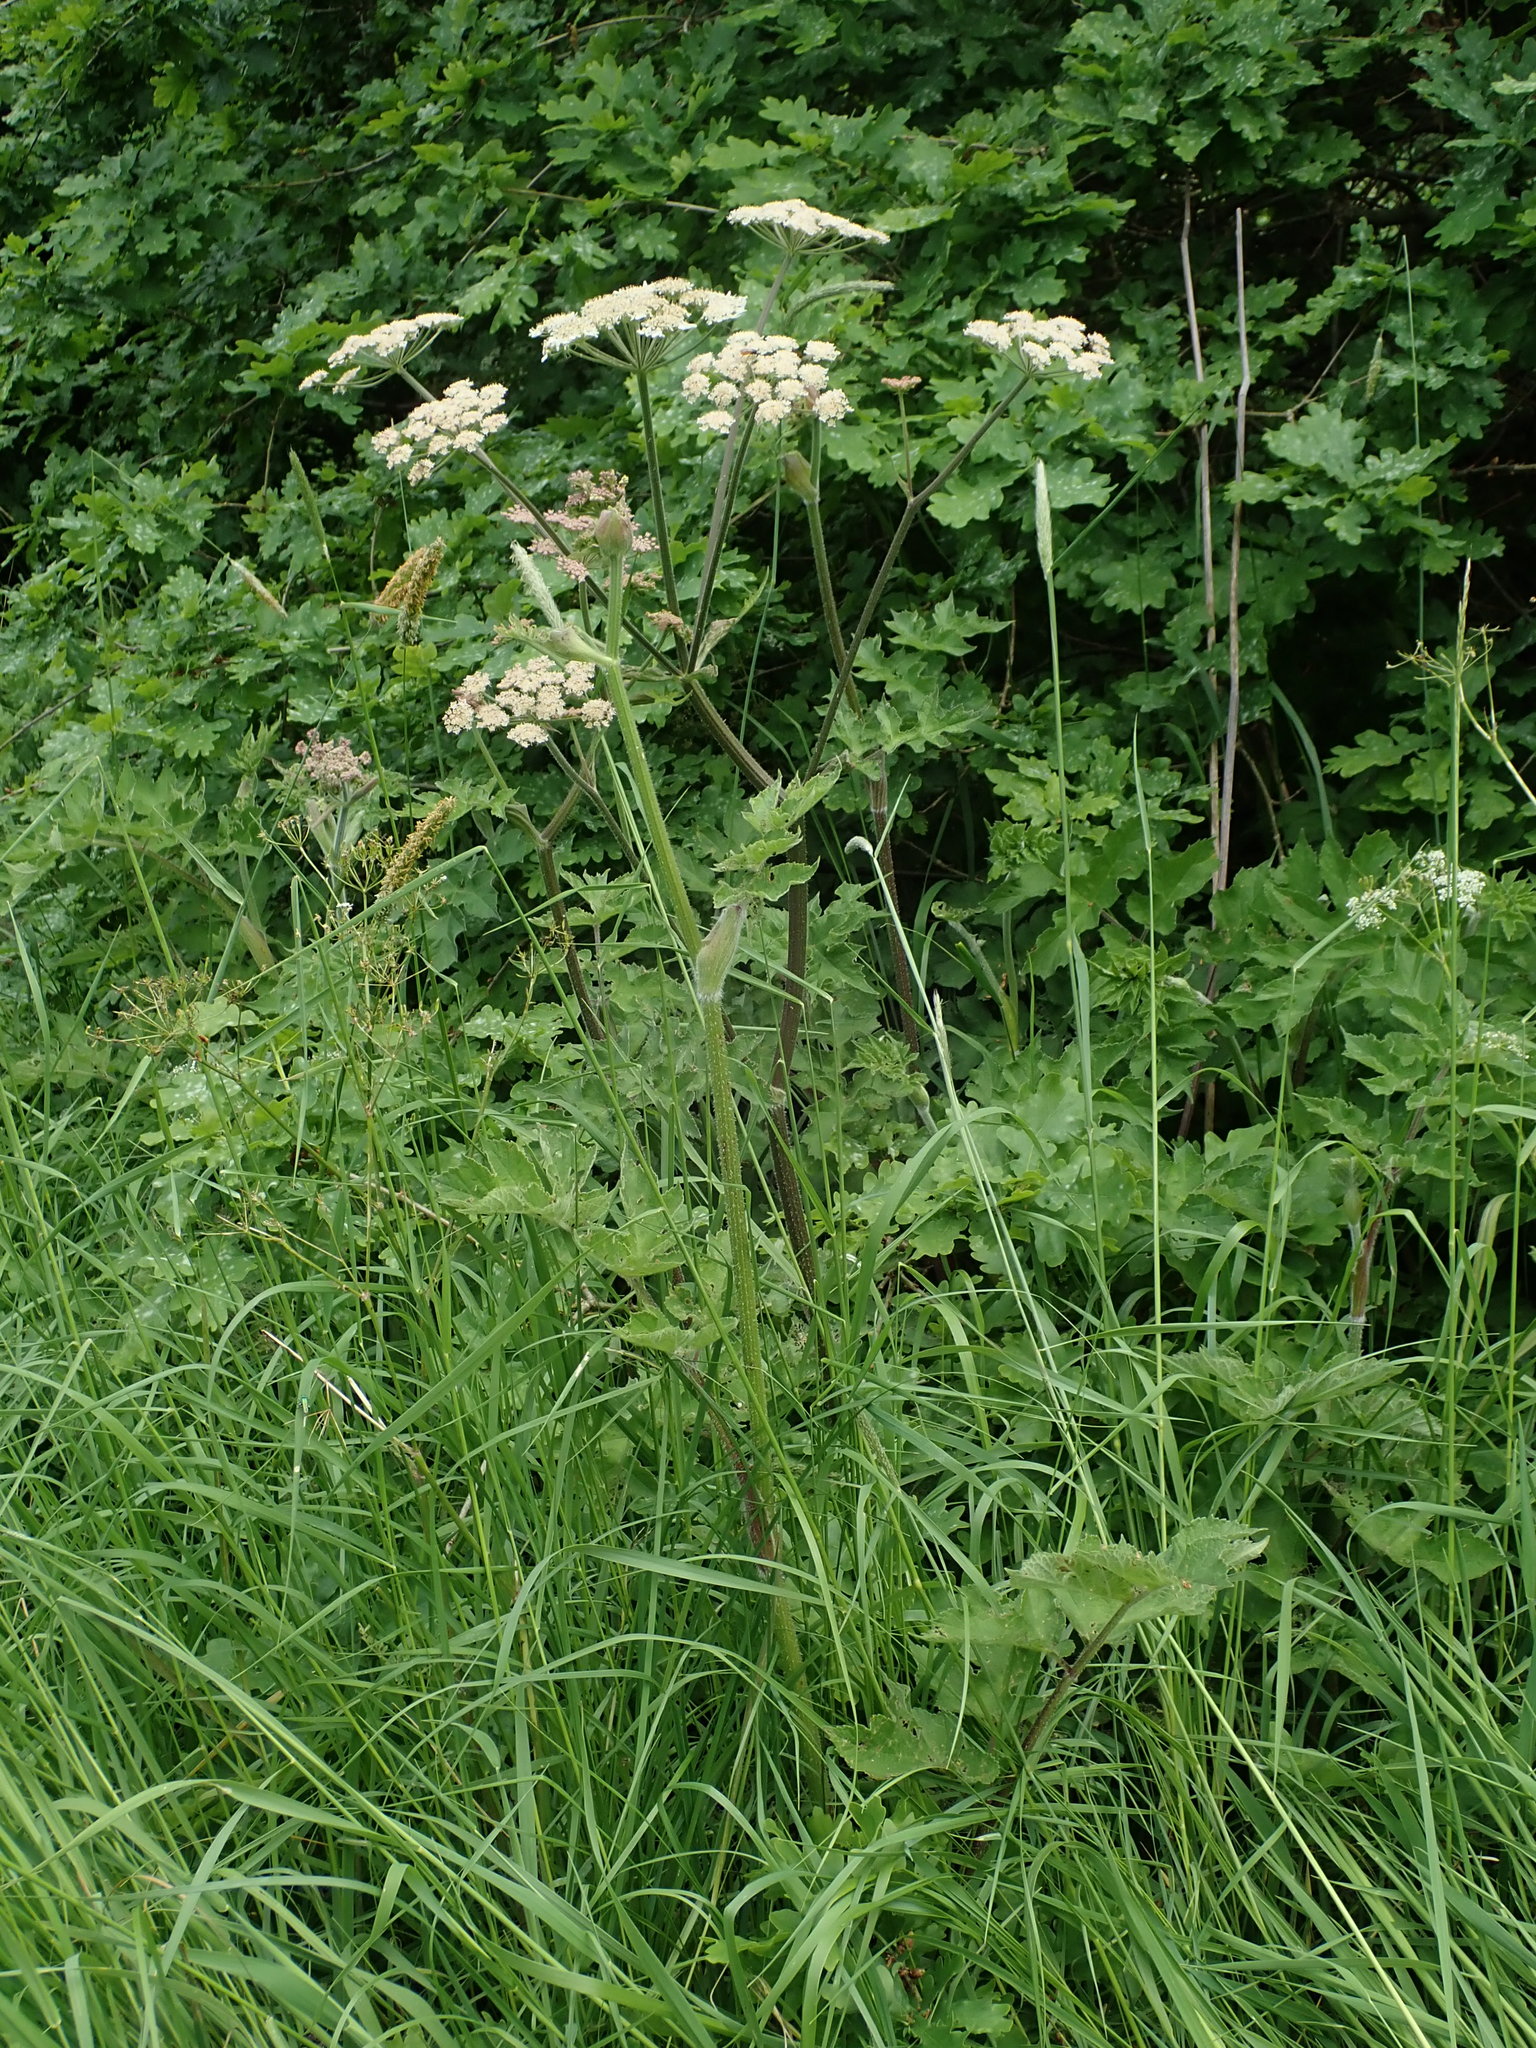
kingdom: Plantae
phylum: Tracheophyta
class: Magnoliopsida
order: Apiales
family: Apiaceae
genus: Heracleum
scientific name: Heracleum sphondylium
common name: Hogweed
